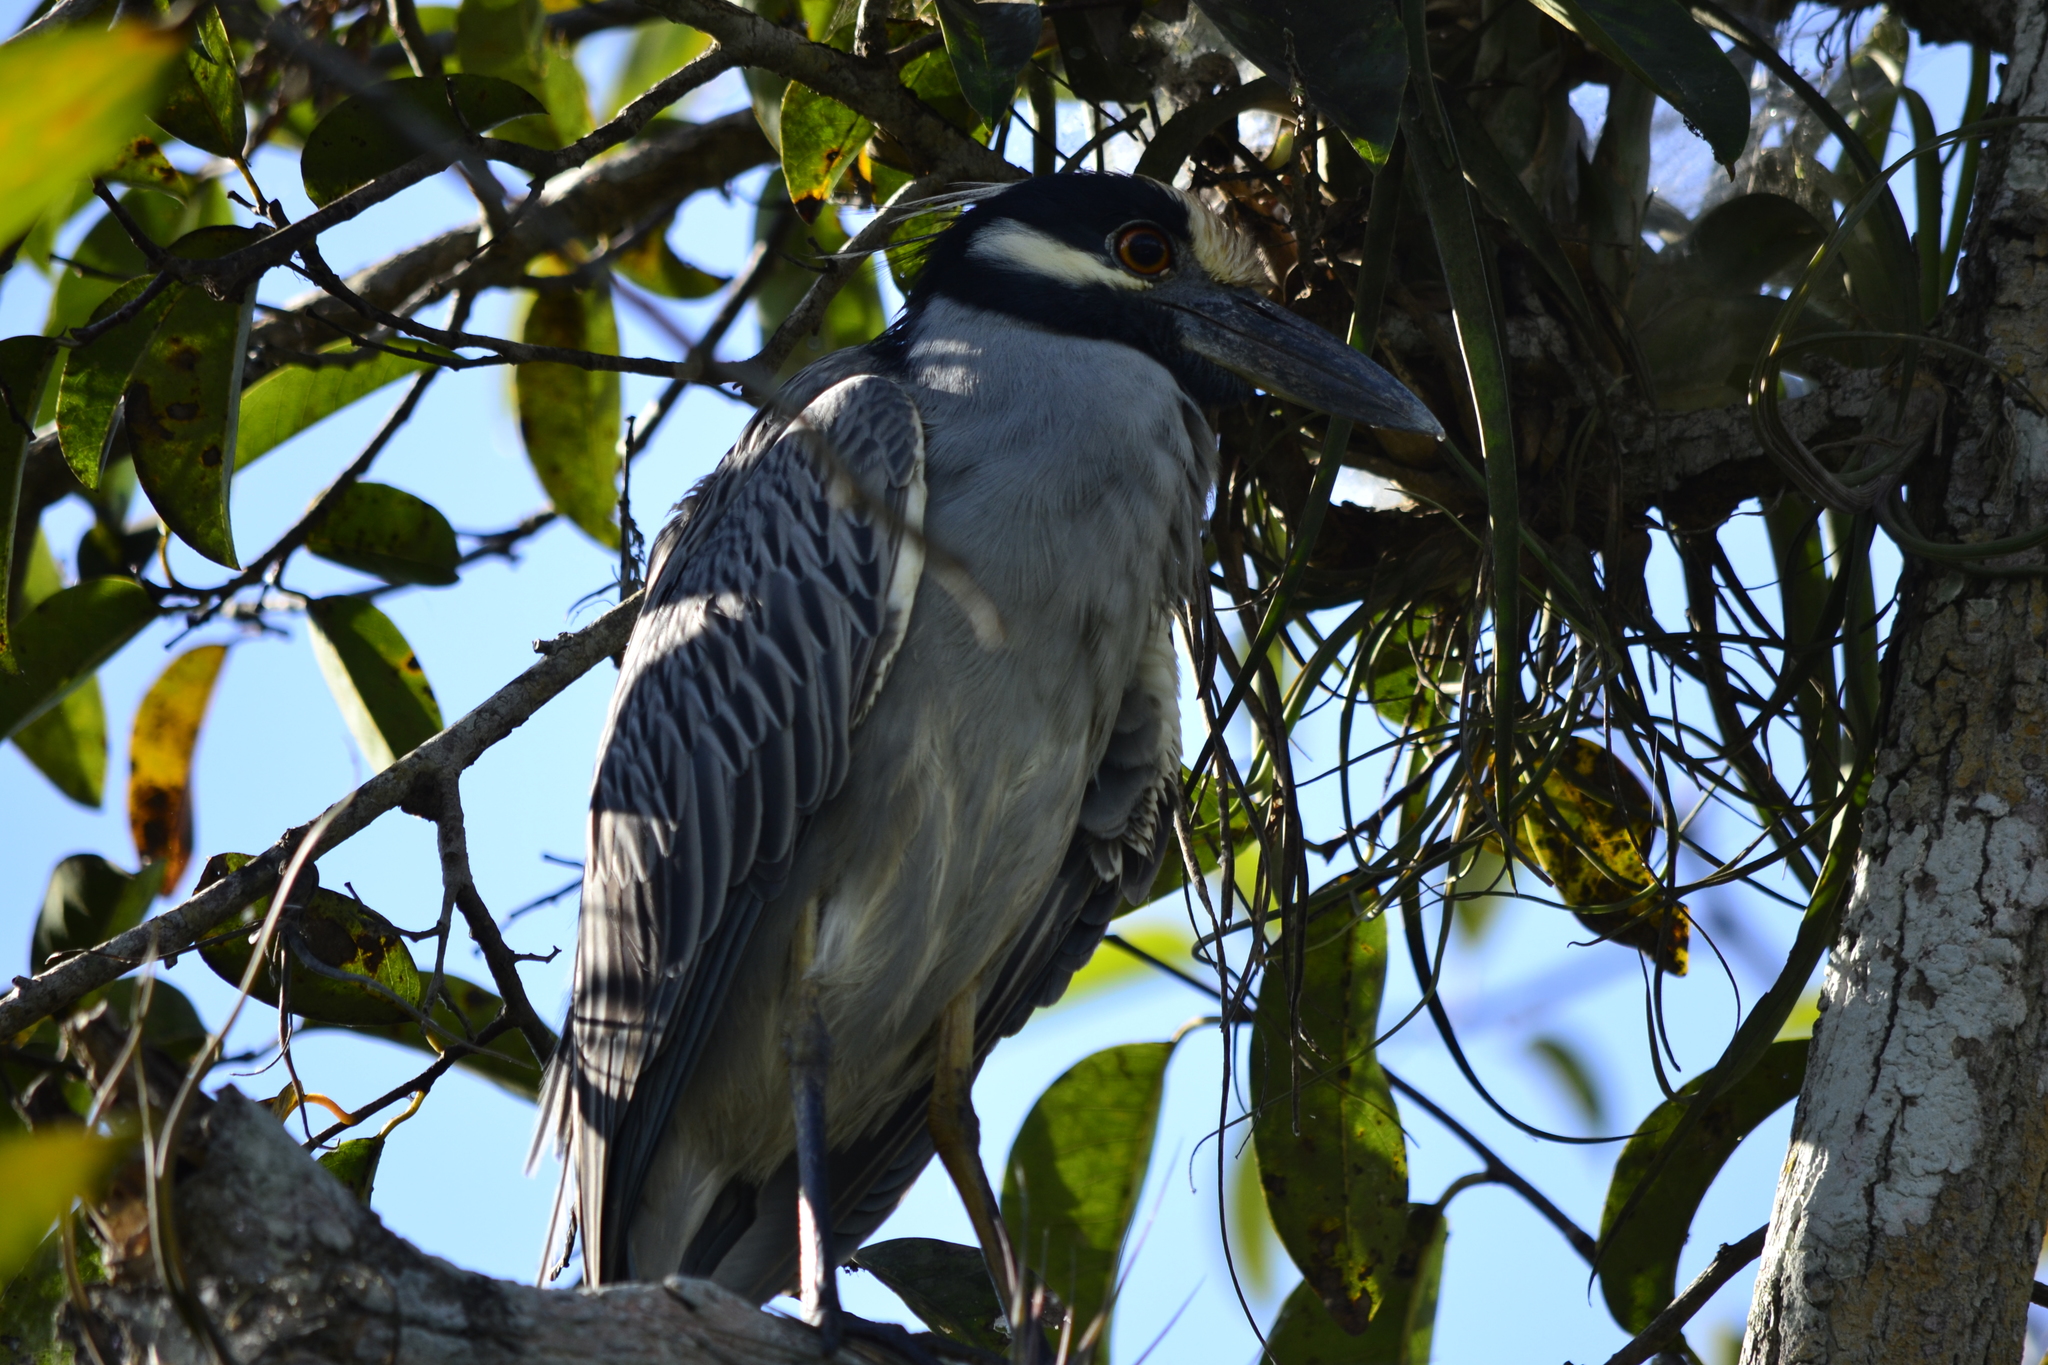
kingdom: Animalia
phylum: Chordata
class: Aves
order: Pelecaniformes
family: Ardeidae
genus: Nyctanassa
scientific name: Nyctanassa violacea
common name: Yellow-crowned night heron
